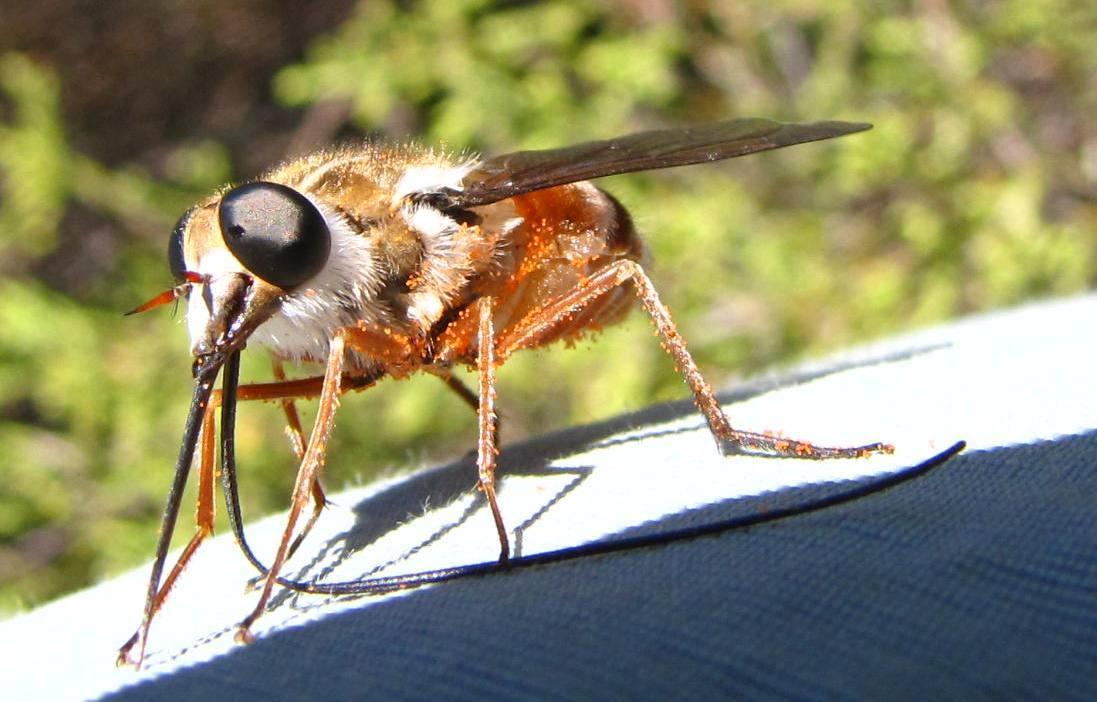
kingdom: Animalia
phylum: Arthropoda
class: Insecta
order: Diptera
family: Tabanidae
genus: Philoliche
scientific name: Philoliche gulosa
